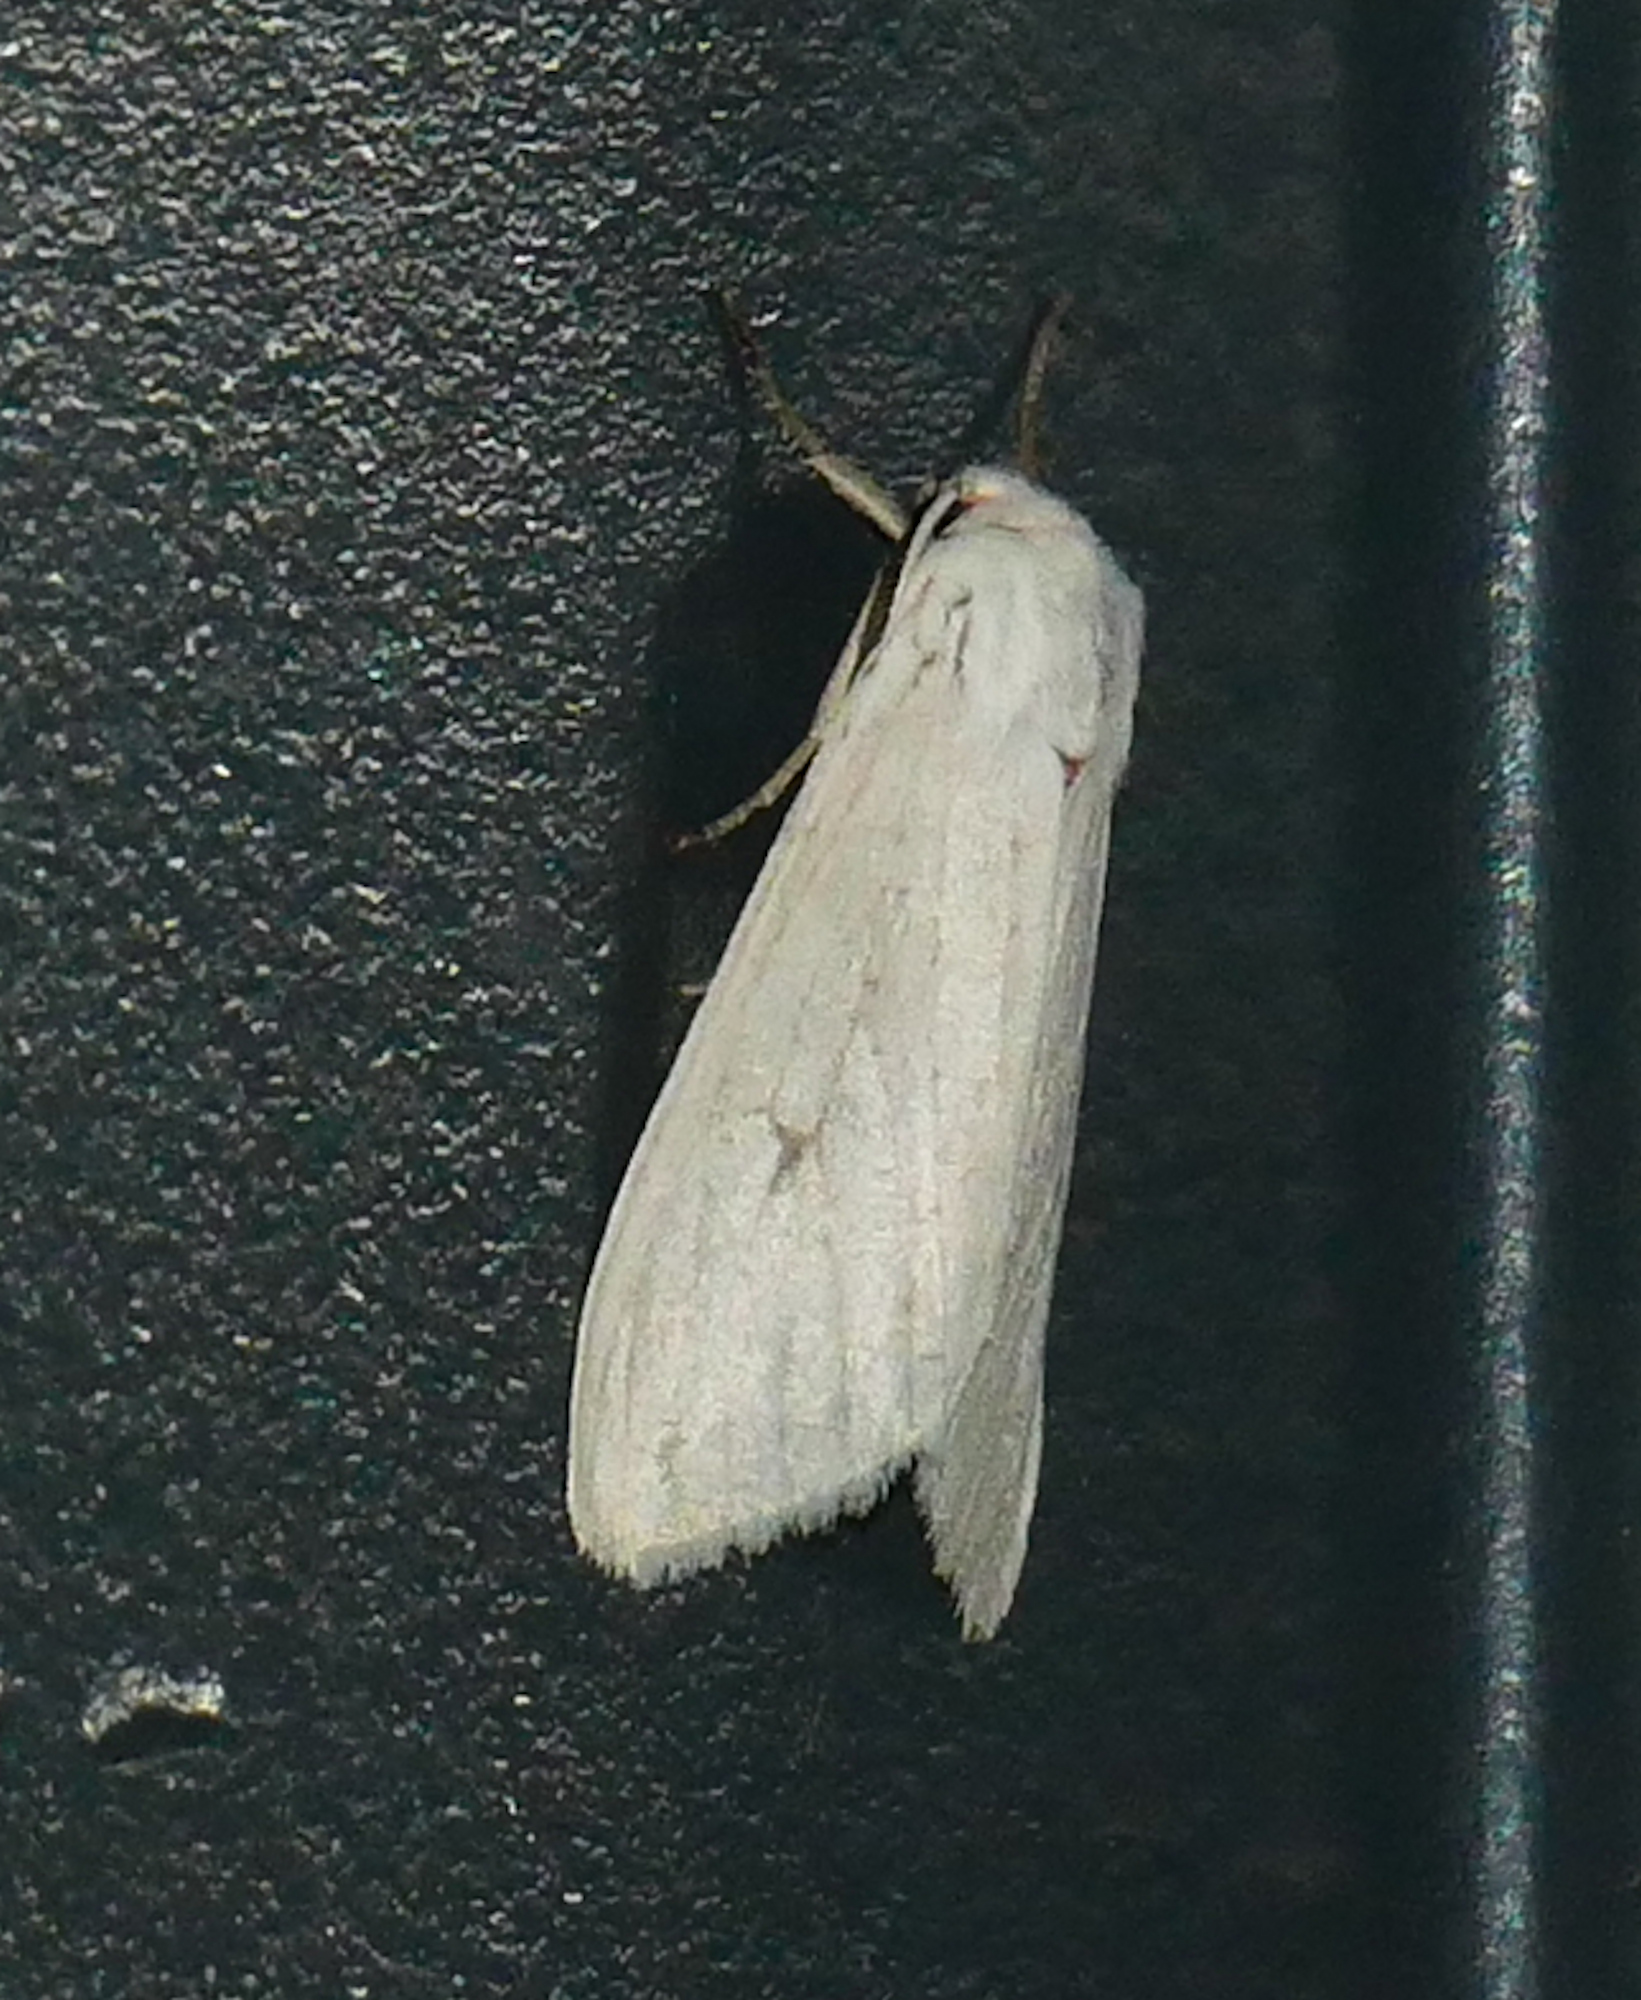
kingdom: Animalia
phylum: Arthropoda
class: Insecta
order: Lepidoptera
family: Erebidae
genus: Euchaetes
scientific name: Euchaetes elegans
